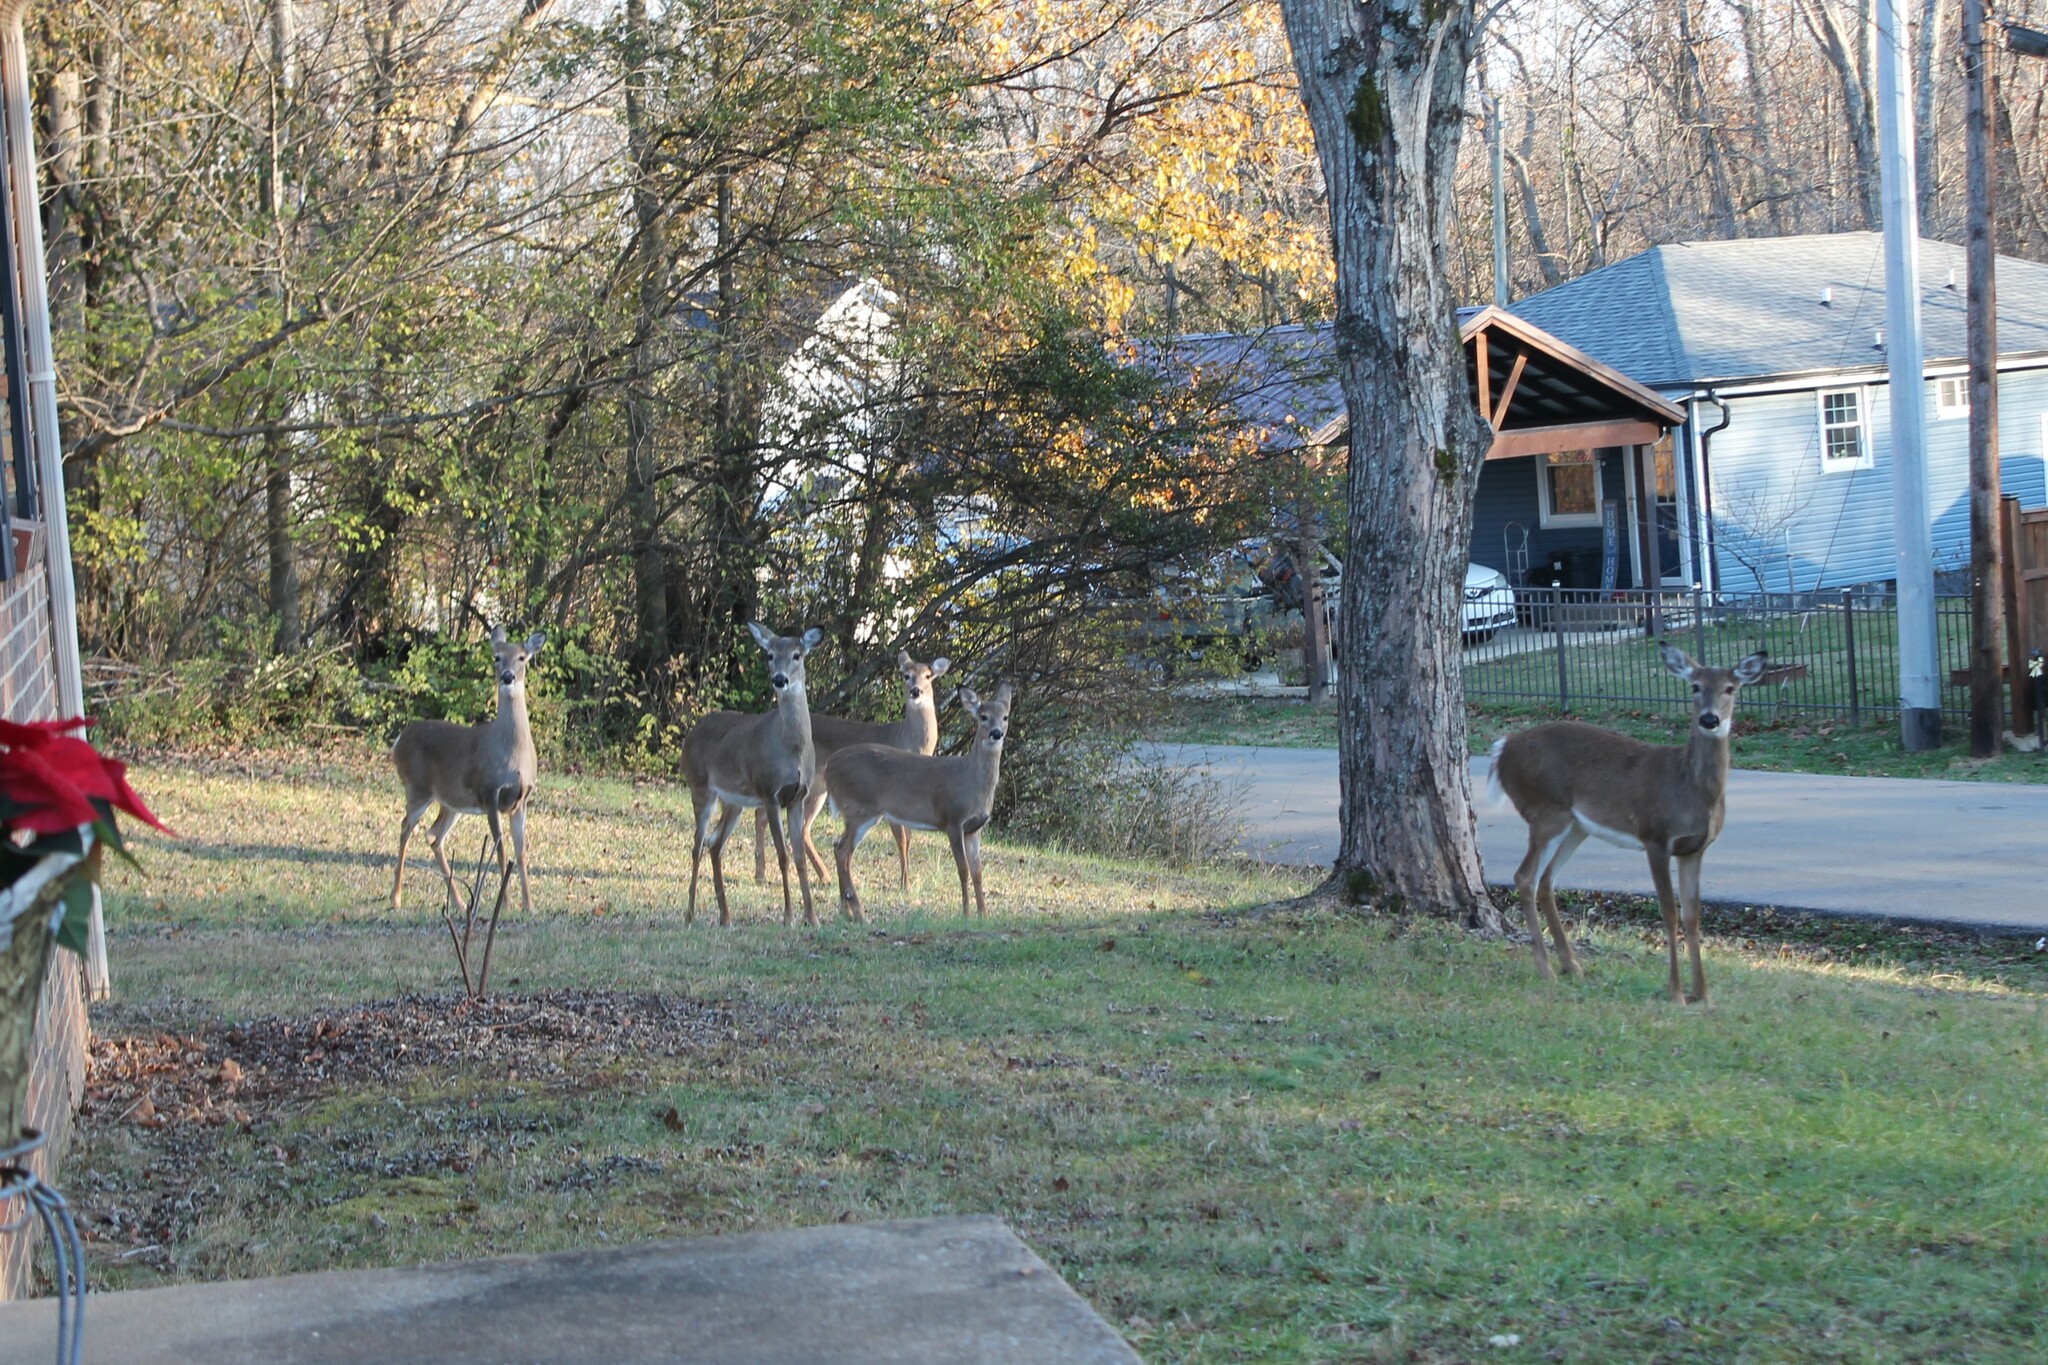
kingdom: Animalia
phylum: Chordata
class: Mammalia
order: Artiodactyla
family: Cervidae
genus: Odocoileus
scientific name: Odocoileus virginianus
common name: White-tailed deer
